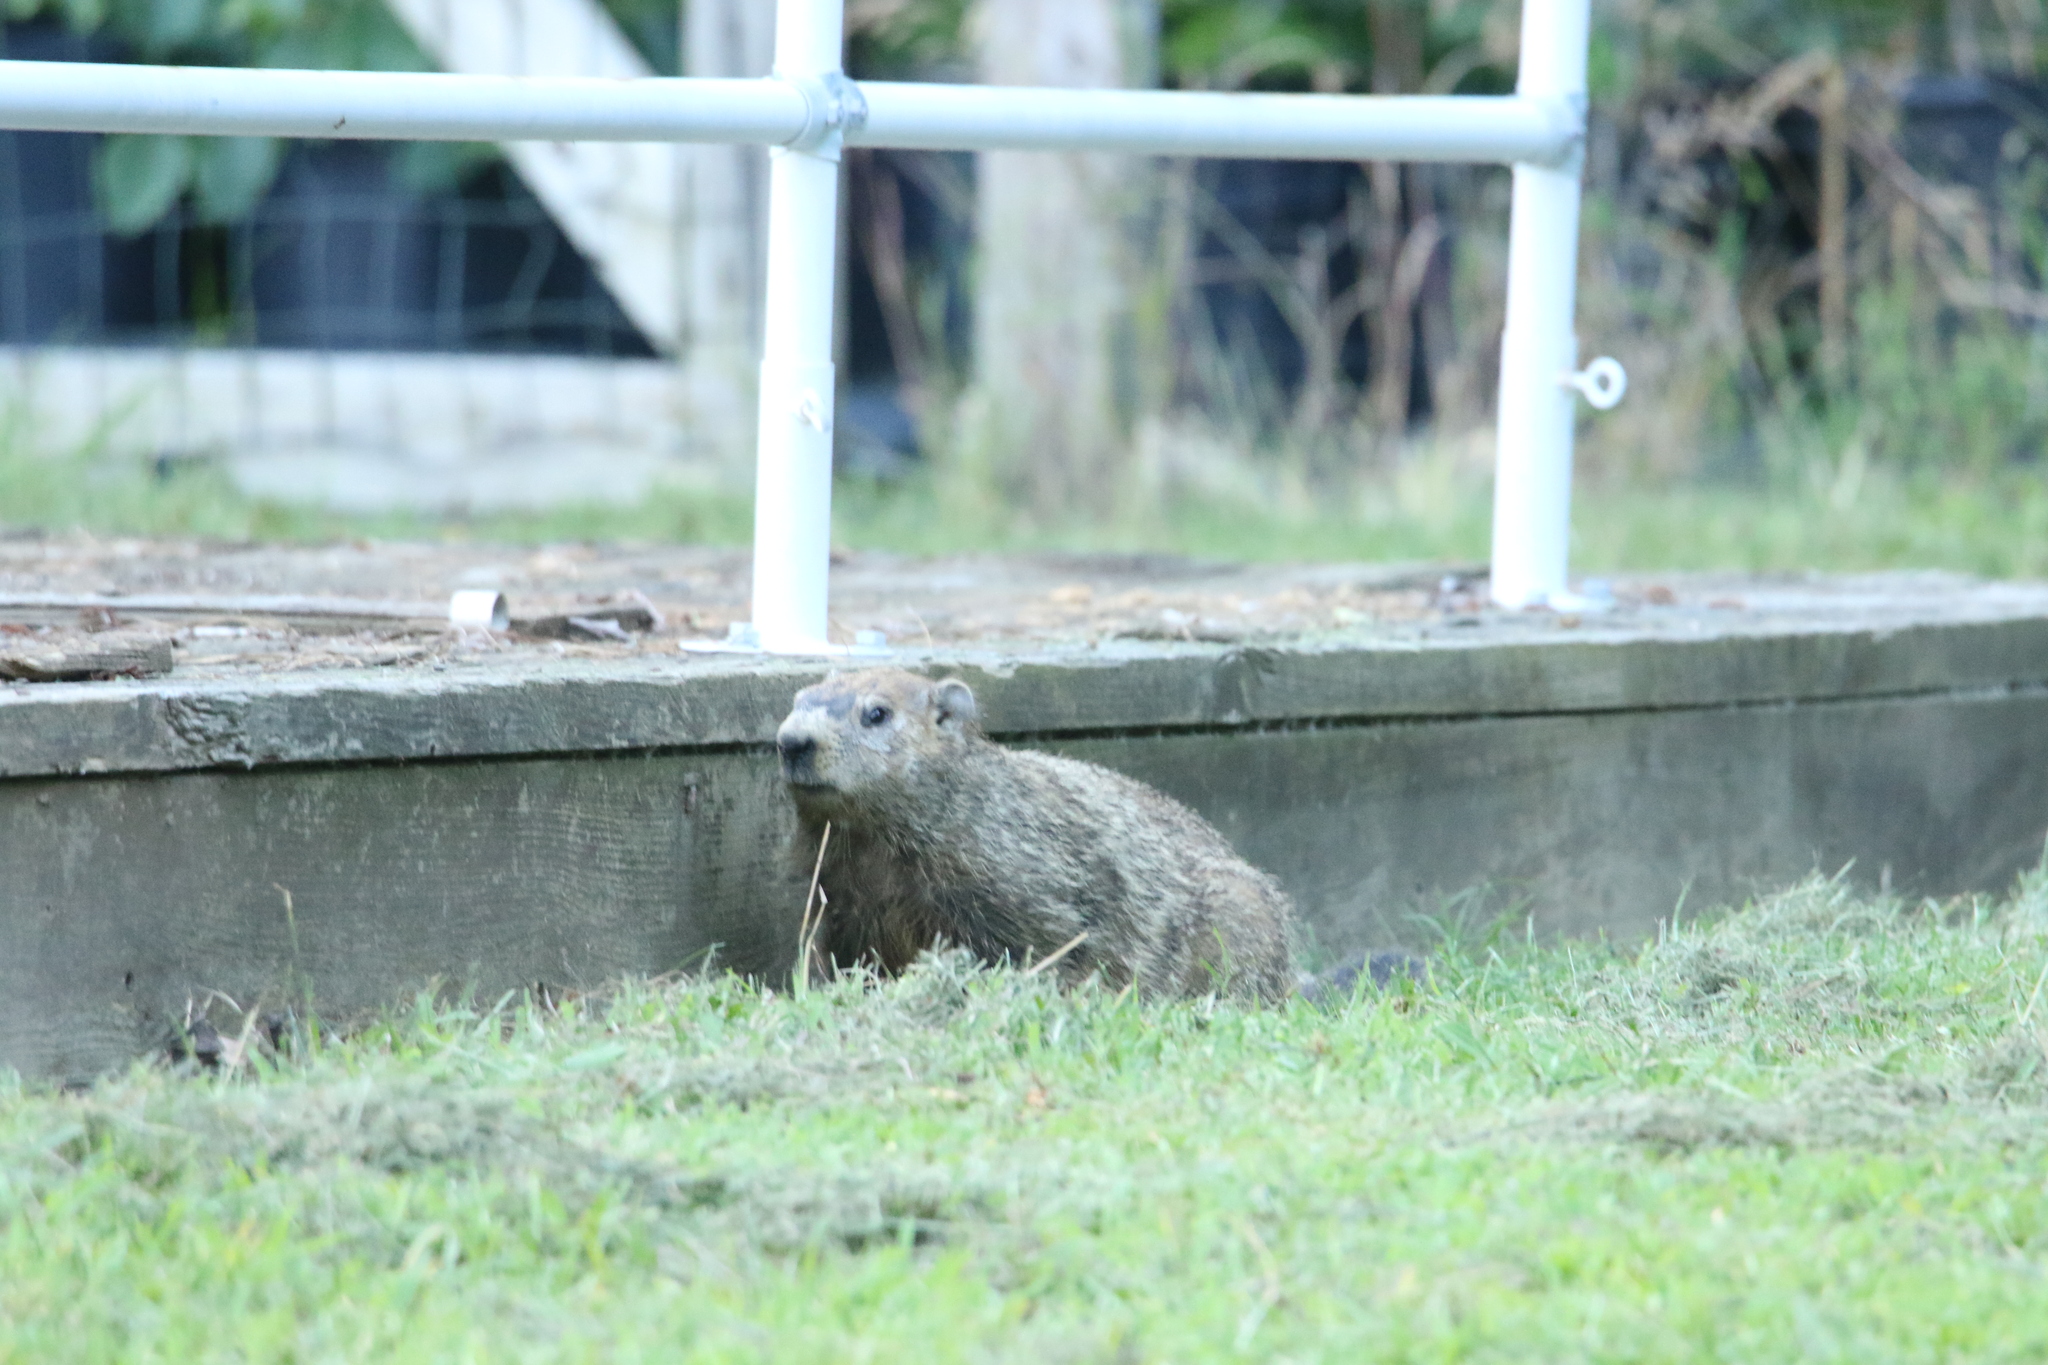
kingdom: Animalia
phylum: Chordata
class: Mammalia
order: Rodentia
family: Sciuridae
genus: Marmota
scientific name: Marmota monax
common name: Groundhog
